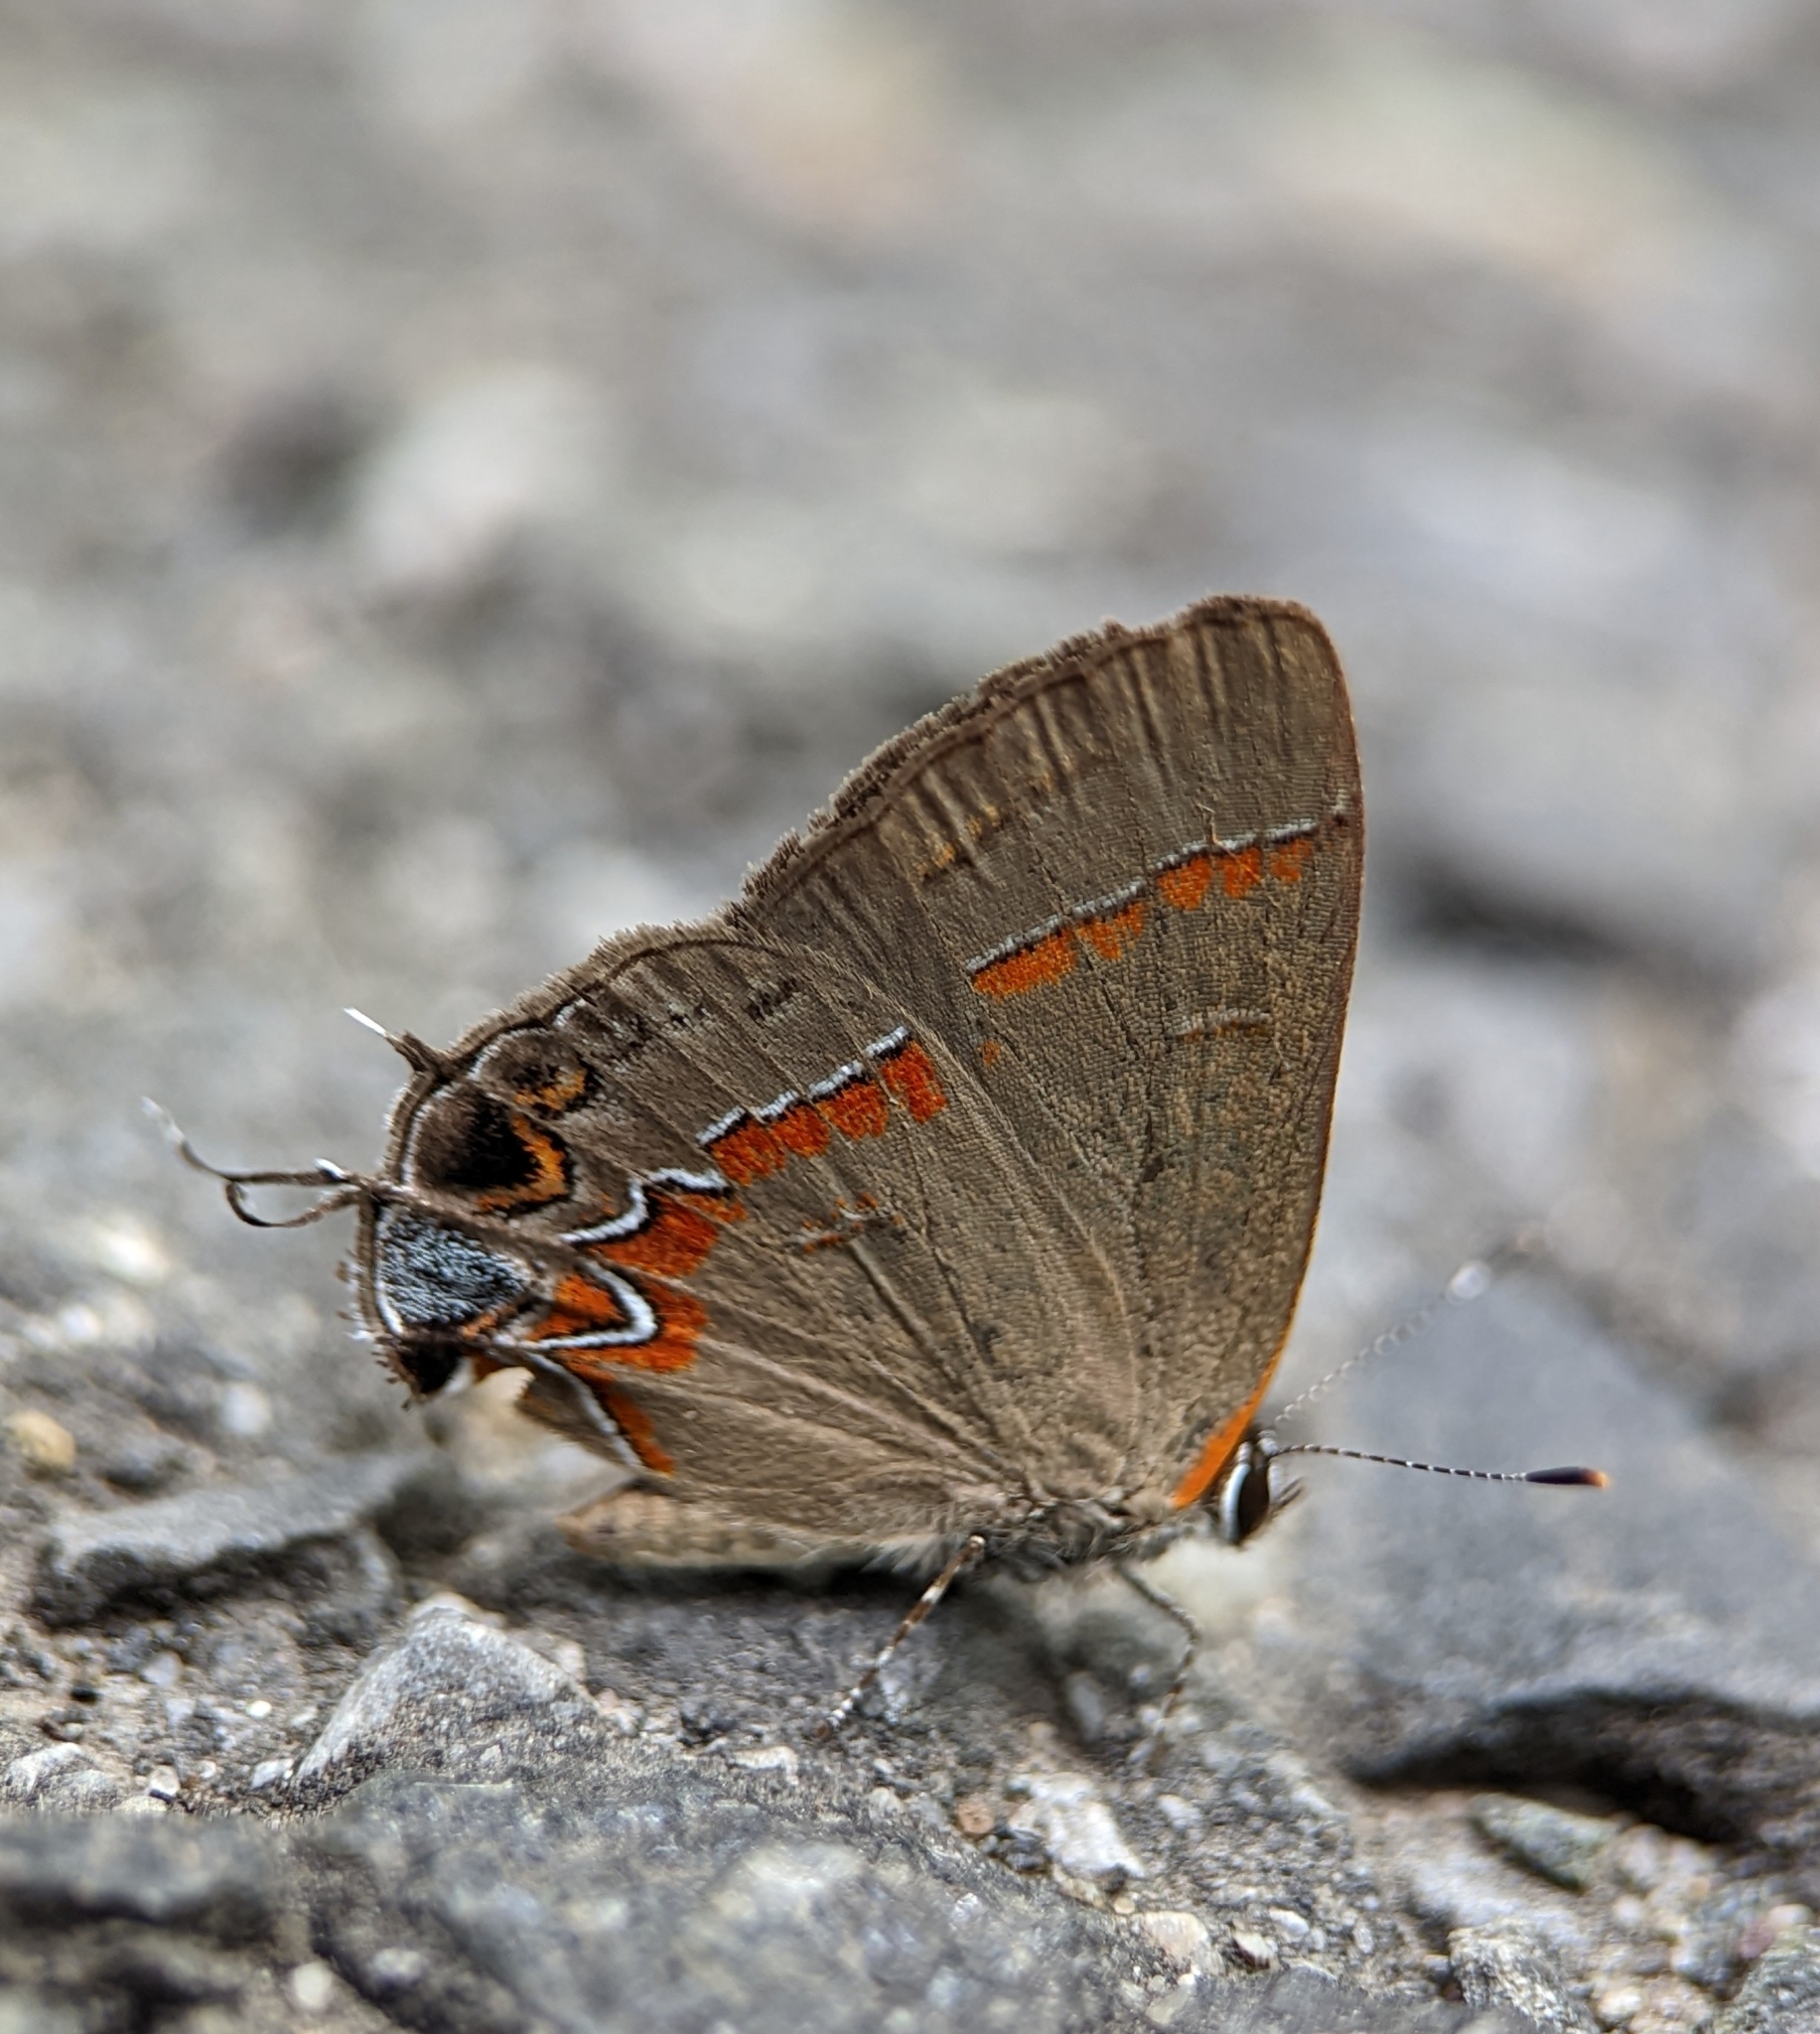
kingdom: Animalia
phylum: Arthropoda
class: Insecta
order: Lepidoptera
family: Lycaenidae
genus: Calycopis
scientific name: Calycopis cecrops
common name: Red-banded hairstreak
